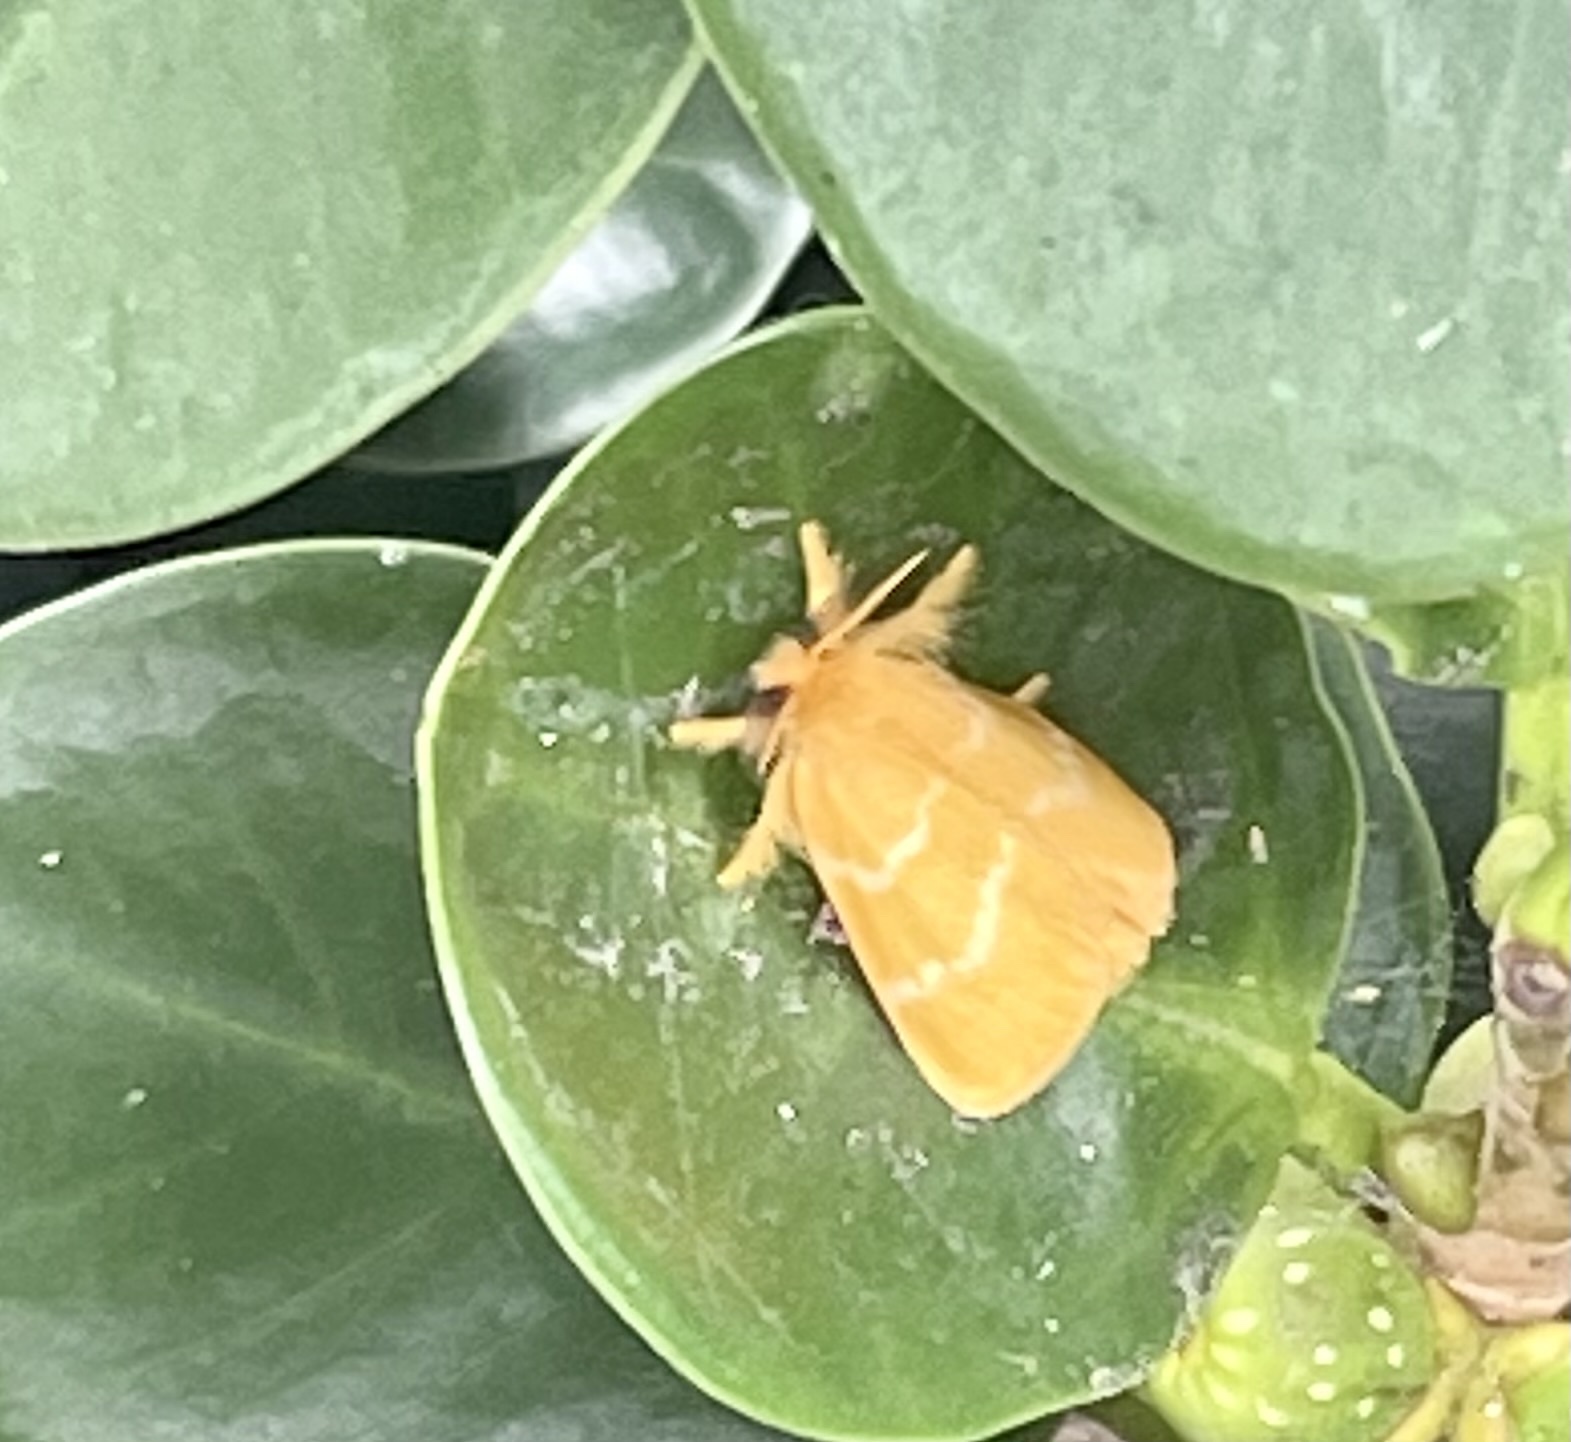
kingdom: Animalia
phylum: Arthropoda
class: Insecta
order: Lepidoptera
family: Erebidae
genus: Euproctis
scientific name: Euproctis lutea
